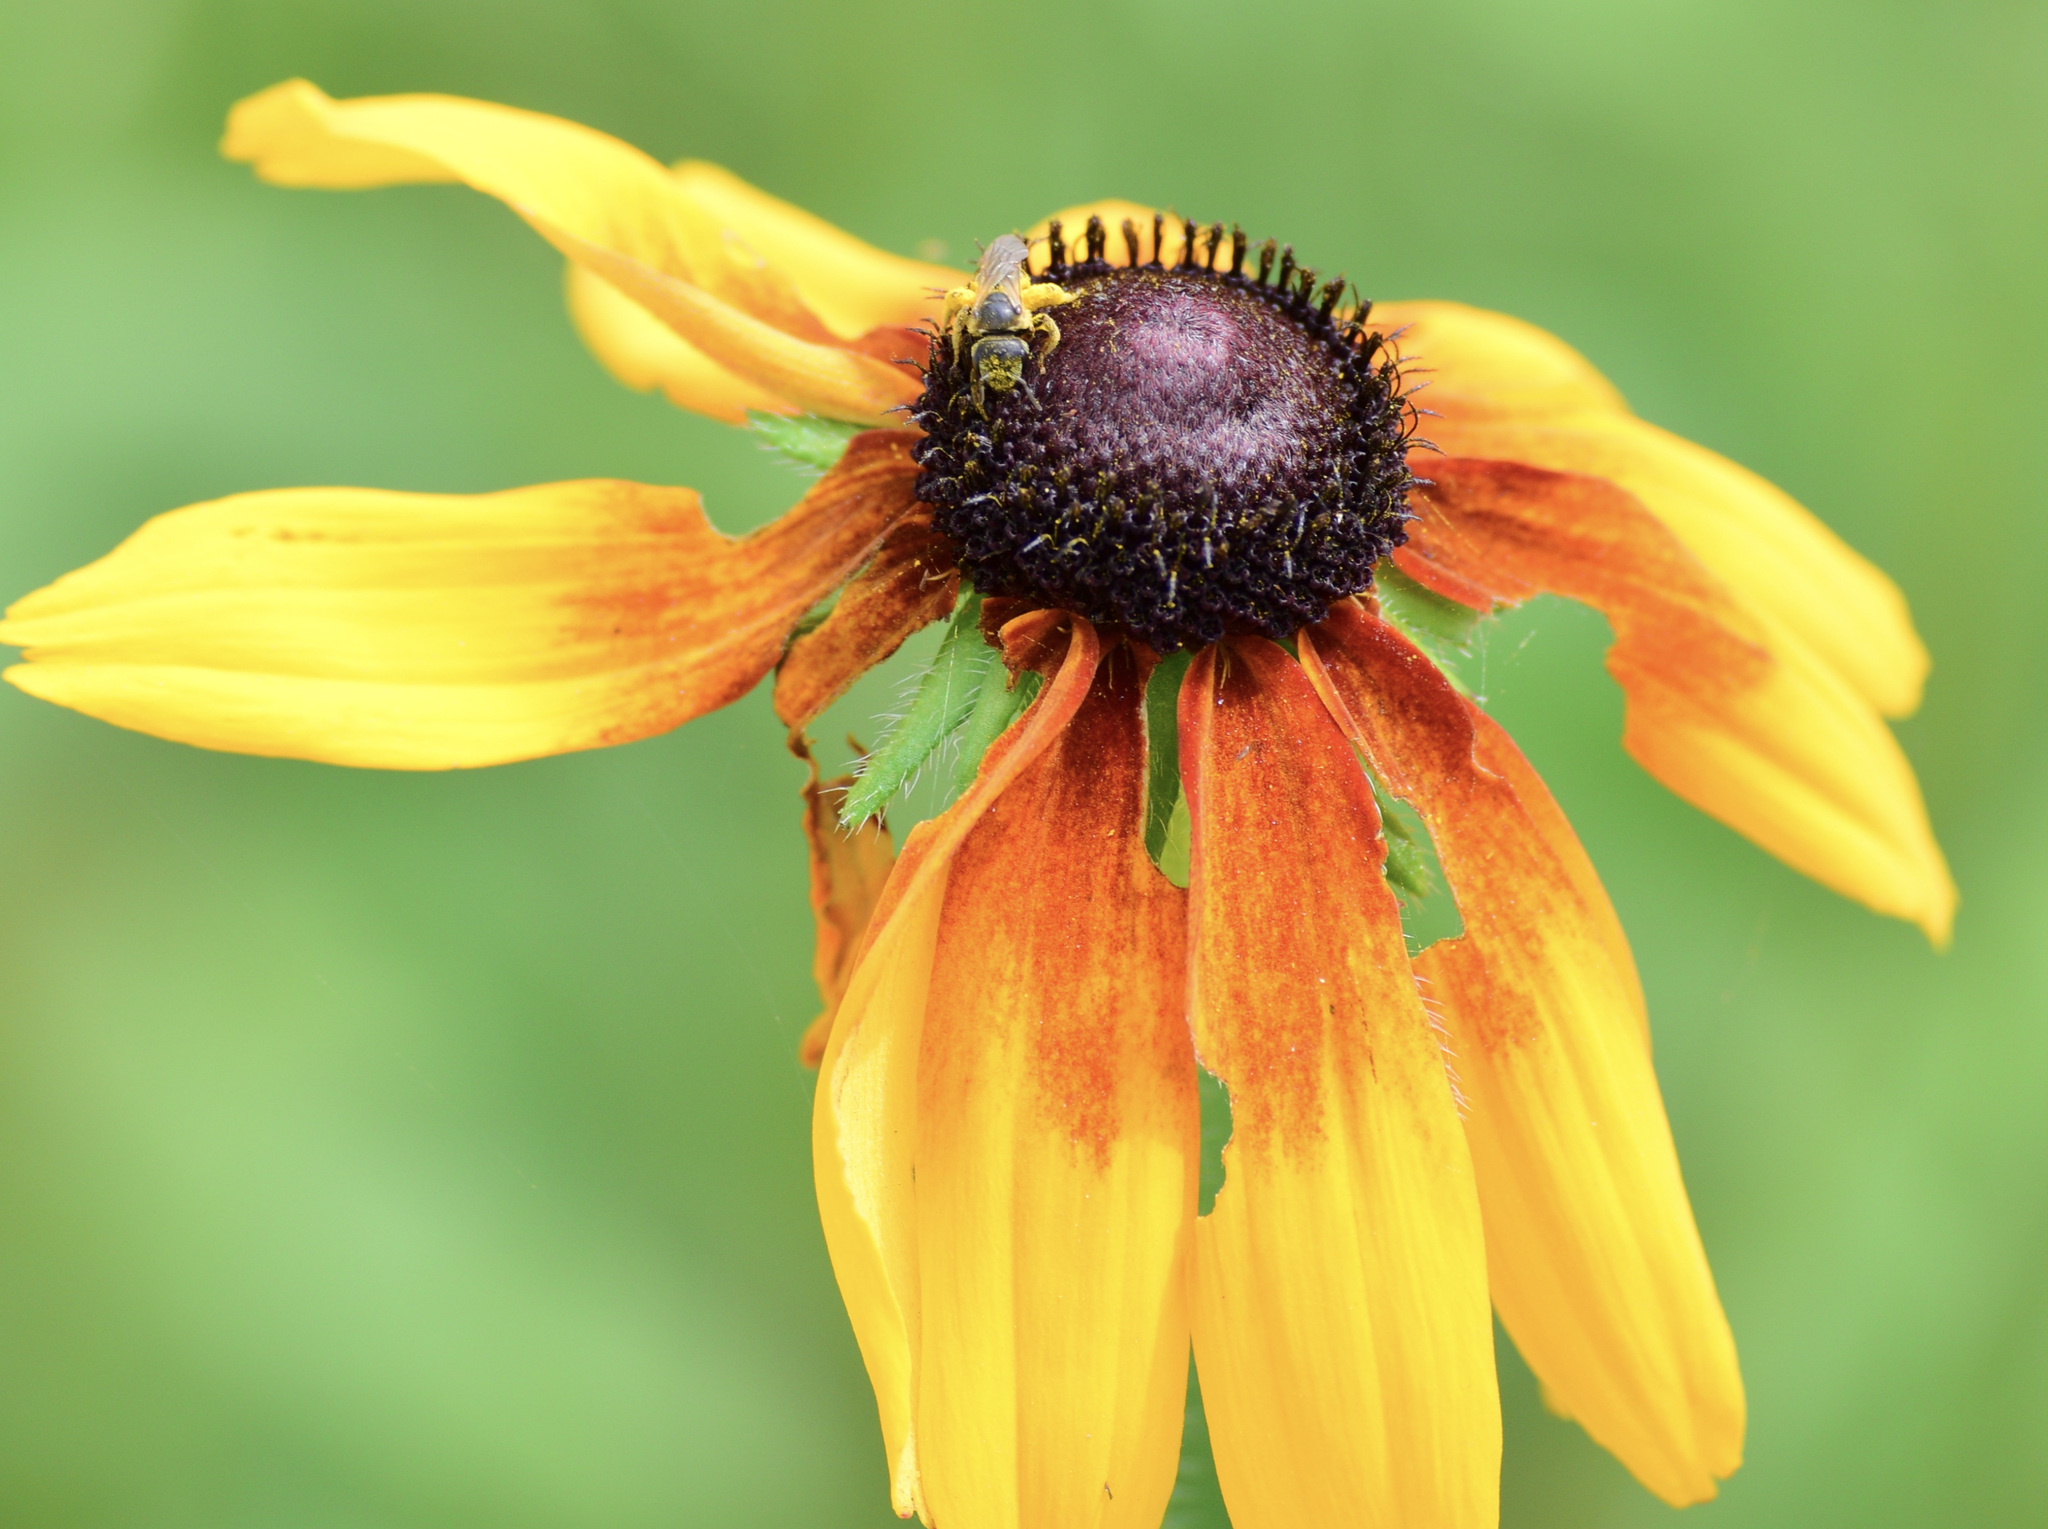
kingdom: Animalia
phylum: Arthropoda
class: Insecta
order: Hymenoptera
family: Halictidae
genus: Halictus
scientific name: Halictus ligatus
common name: Ligated furrow bee
